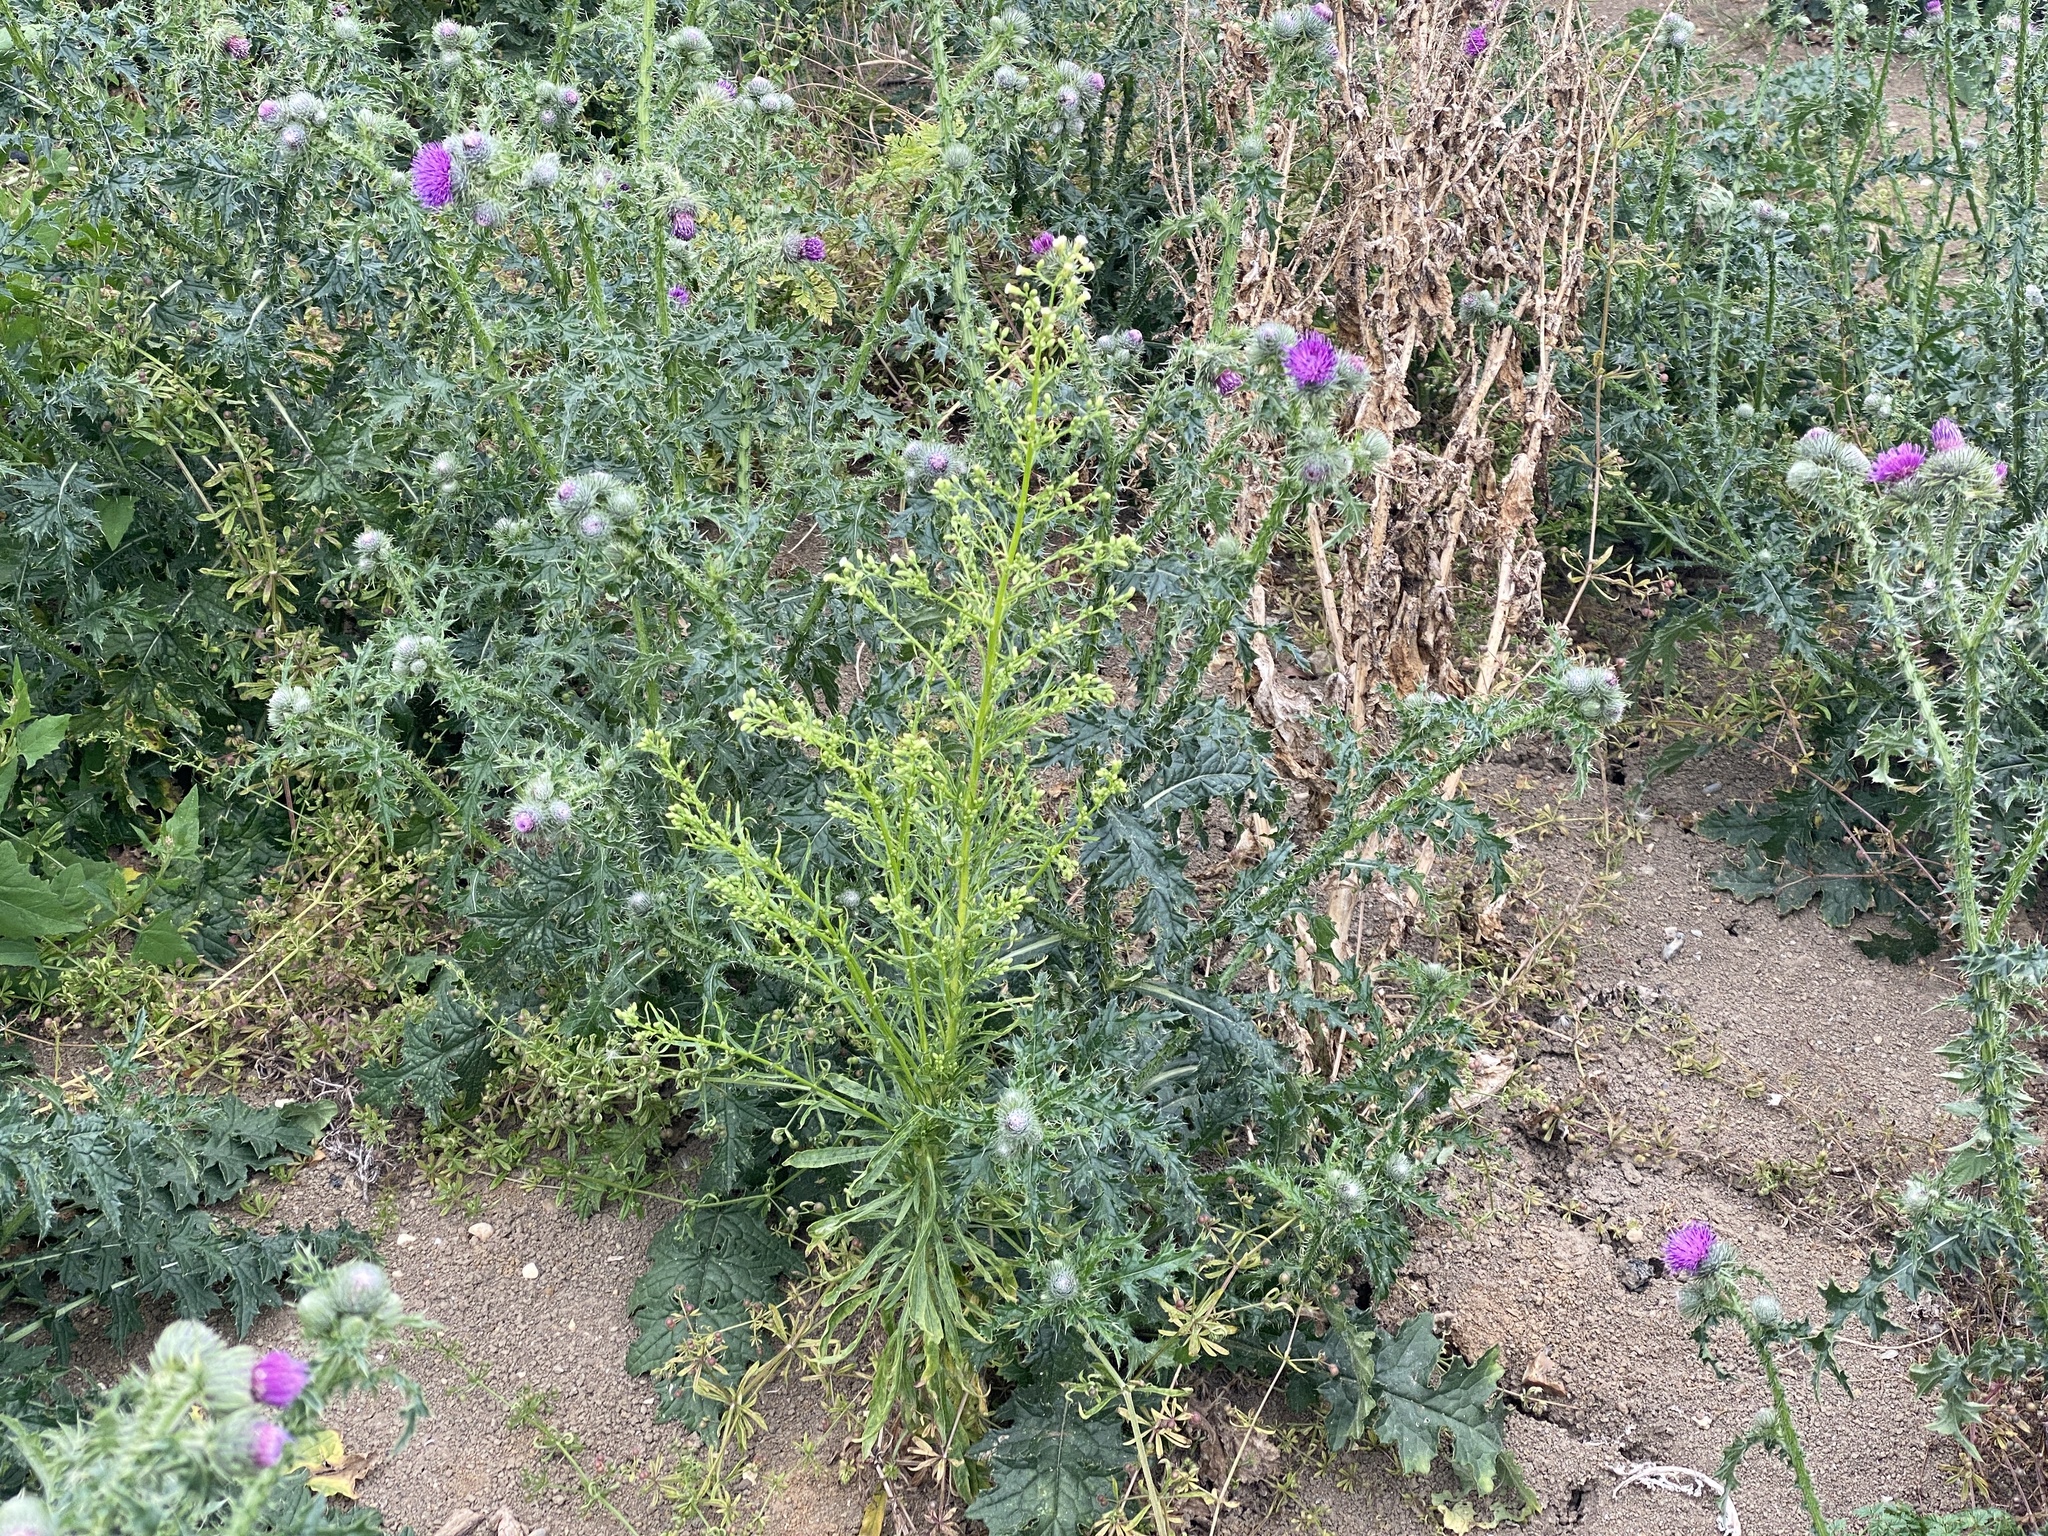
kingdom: Plantae
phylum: Tracheophyta
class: Magnoliopsida
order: Asterales
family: Asteraceae
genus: Erigeron
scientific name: Erigeron canadensis
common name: Canadian fleabane
